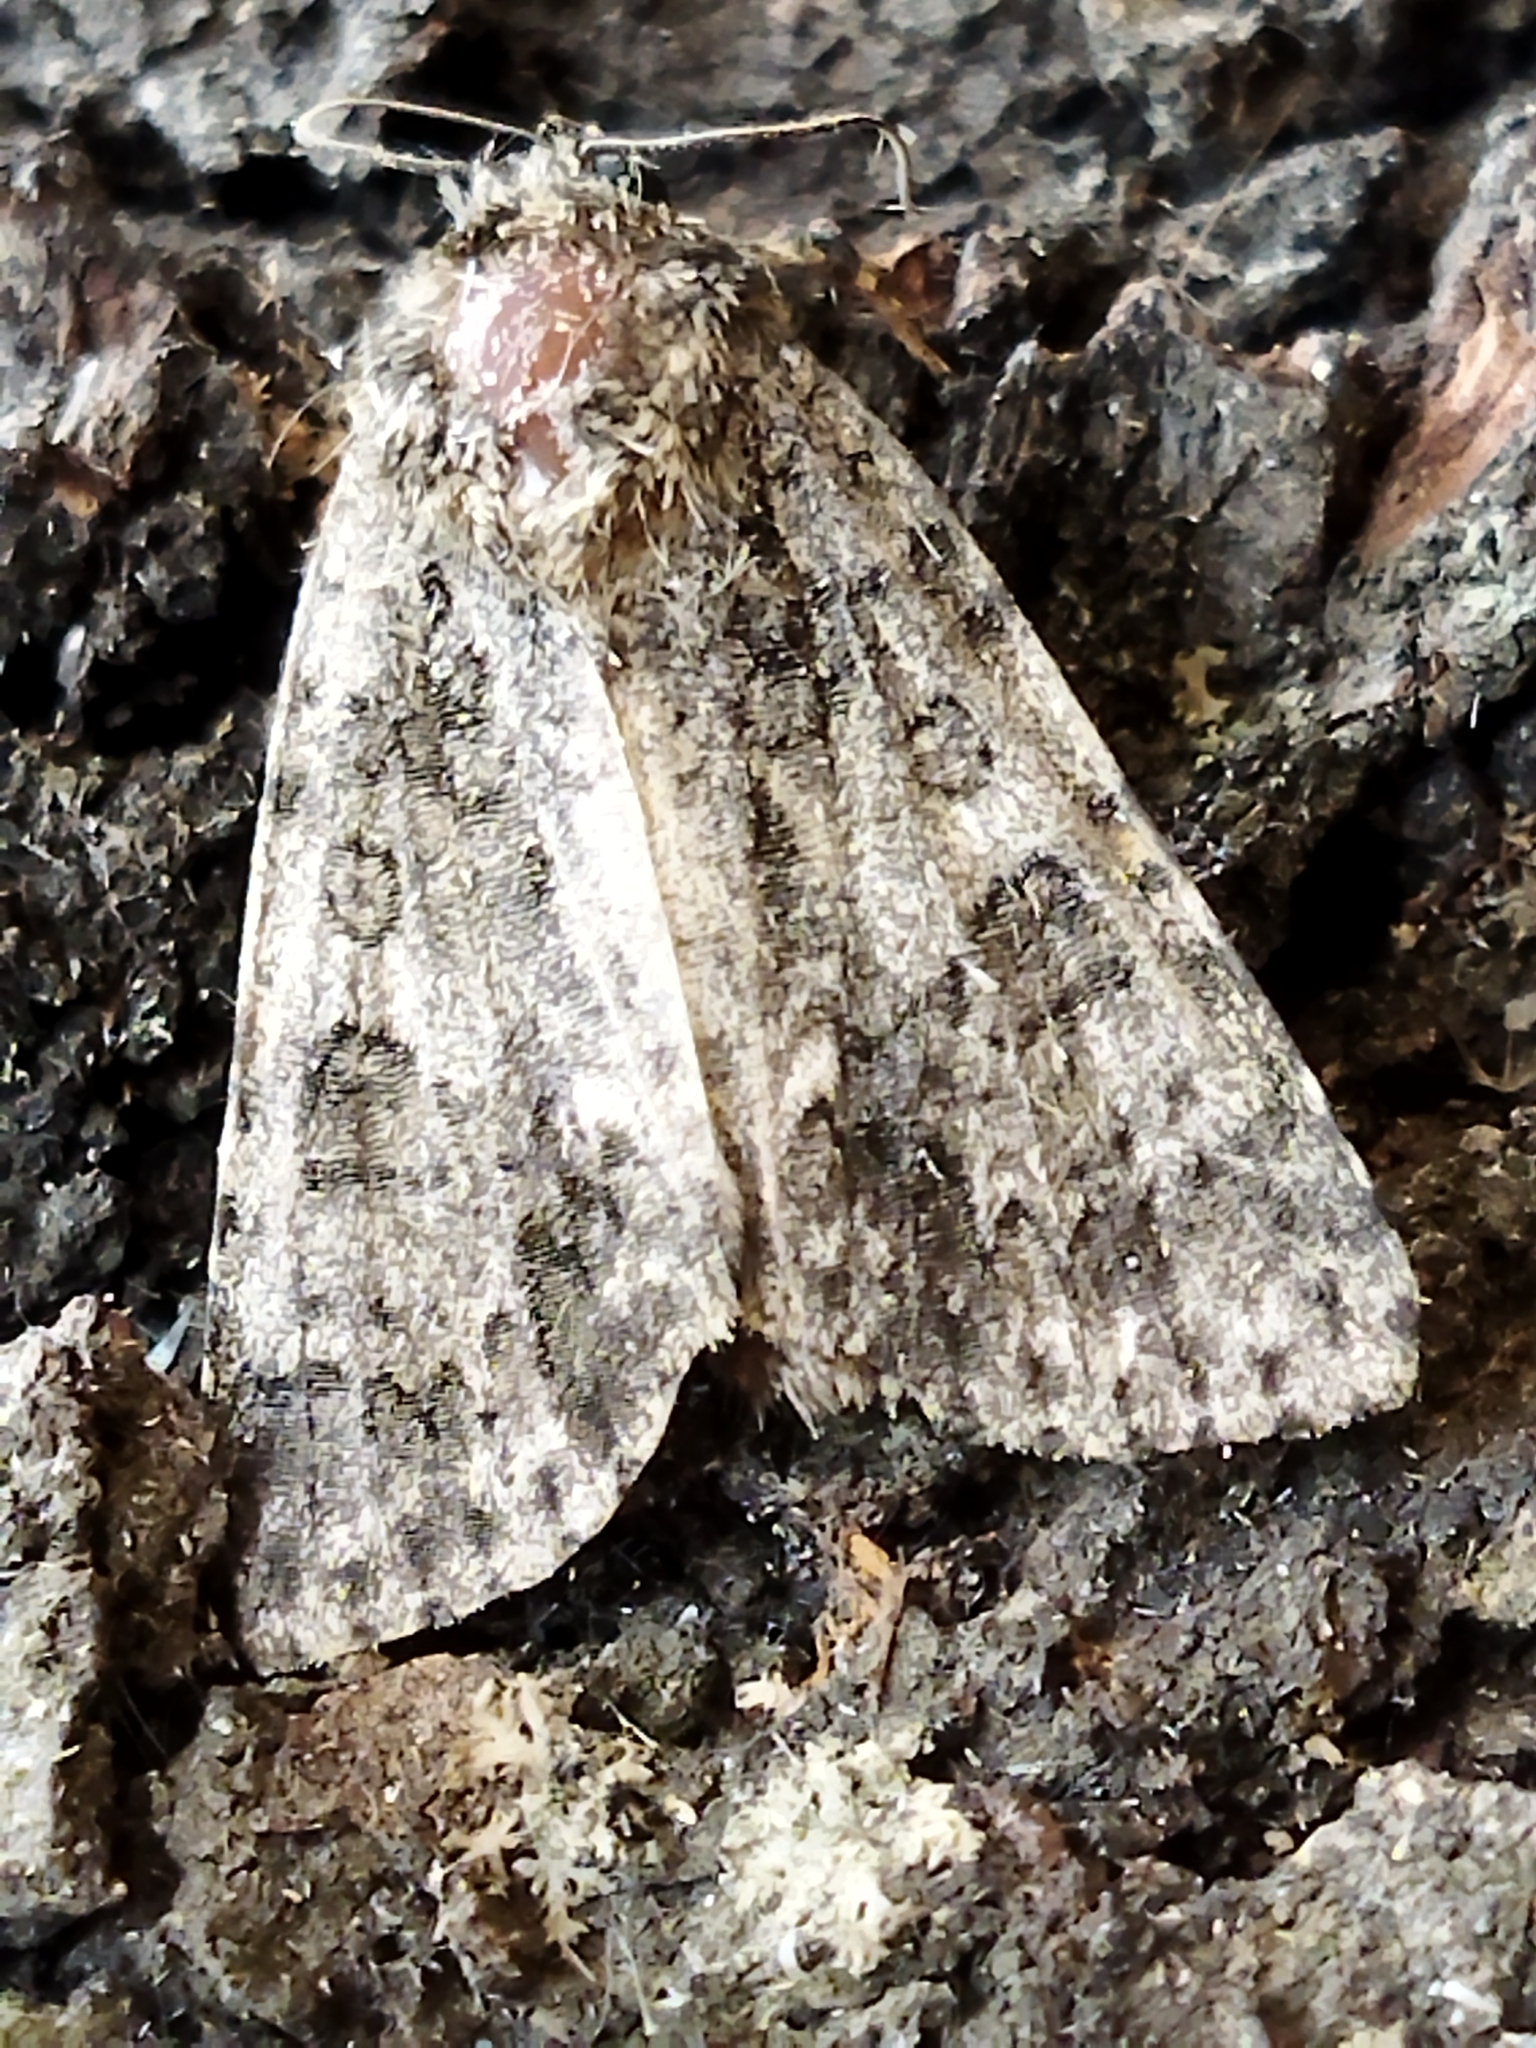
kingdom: Animalia
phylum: Arthropoda
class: Insecta
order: Lepidoptera
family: Noctuidae
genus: Acronicta
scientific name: Acronicta rumicis
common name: Knot grass
